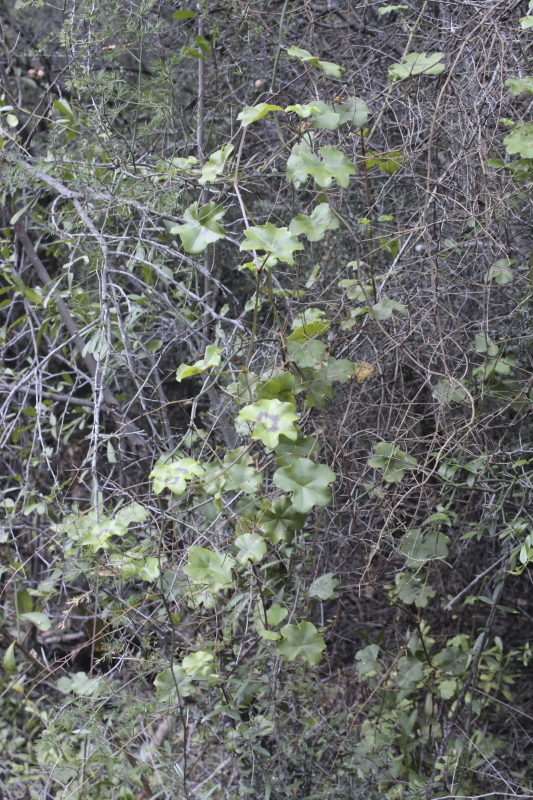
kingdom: Plantae
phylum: Tracheophyta
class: Magnoliopsida
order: Geraniales
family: Geraniaceae
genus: Pelargonium
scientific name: Pelargonium peltatum
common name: Ivyleaf geranium
